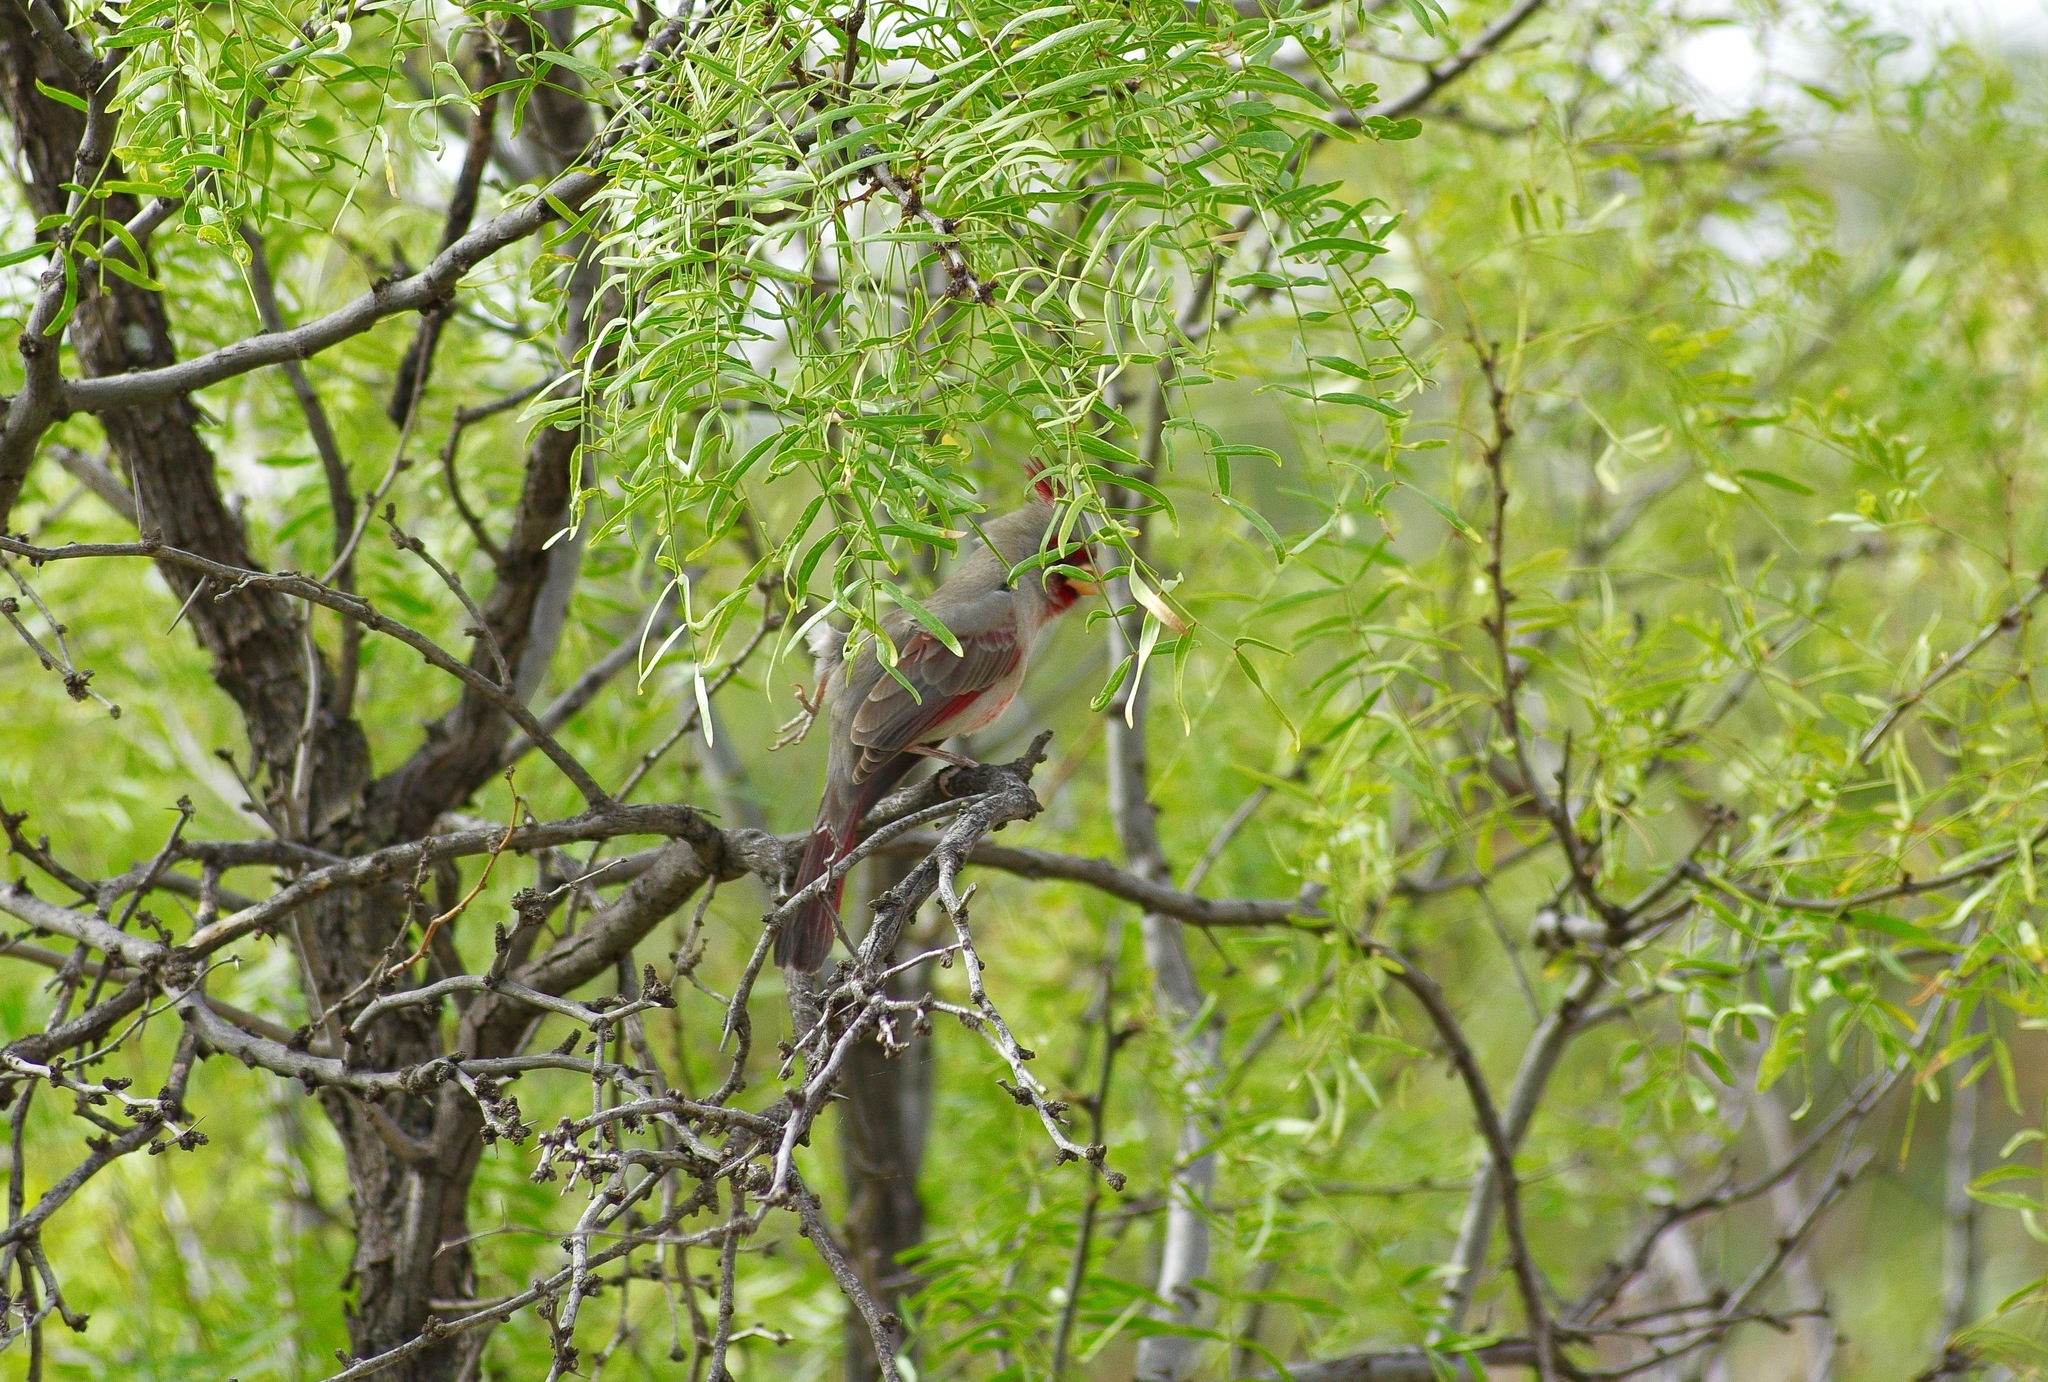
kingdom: Animalia
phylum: Chordata
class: Aves
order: Passeriformes
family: Cardinalidae
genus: Cardinalis
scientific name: Cardinalis sinuatus
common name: Pyrrhuloxia
